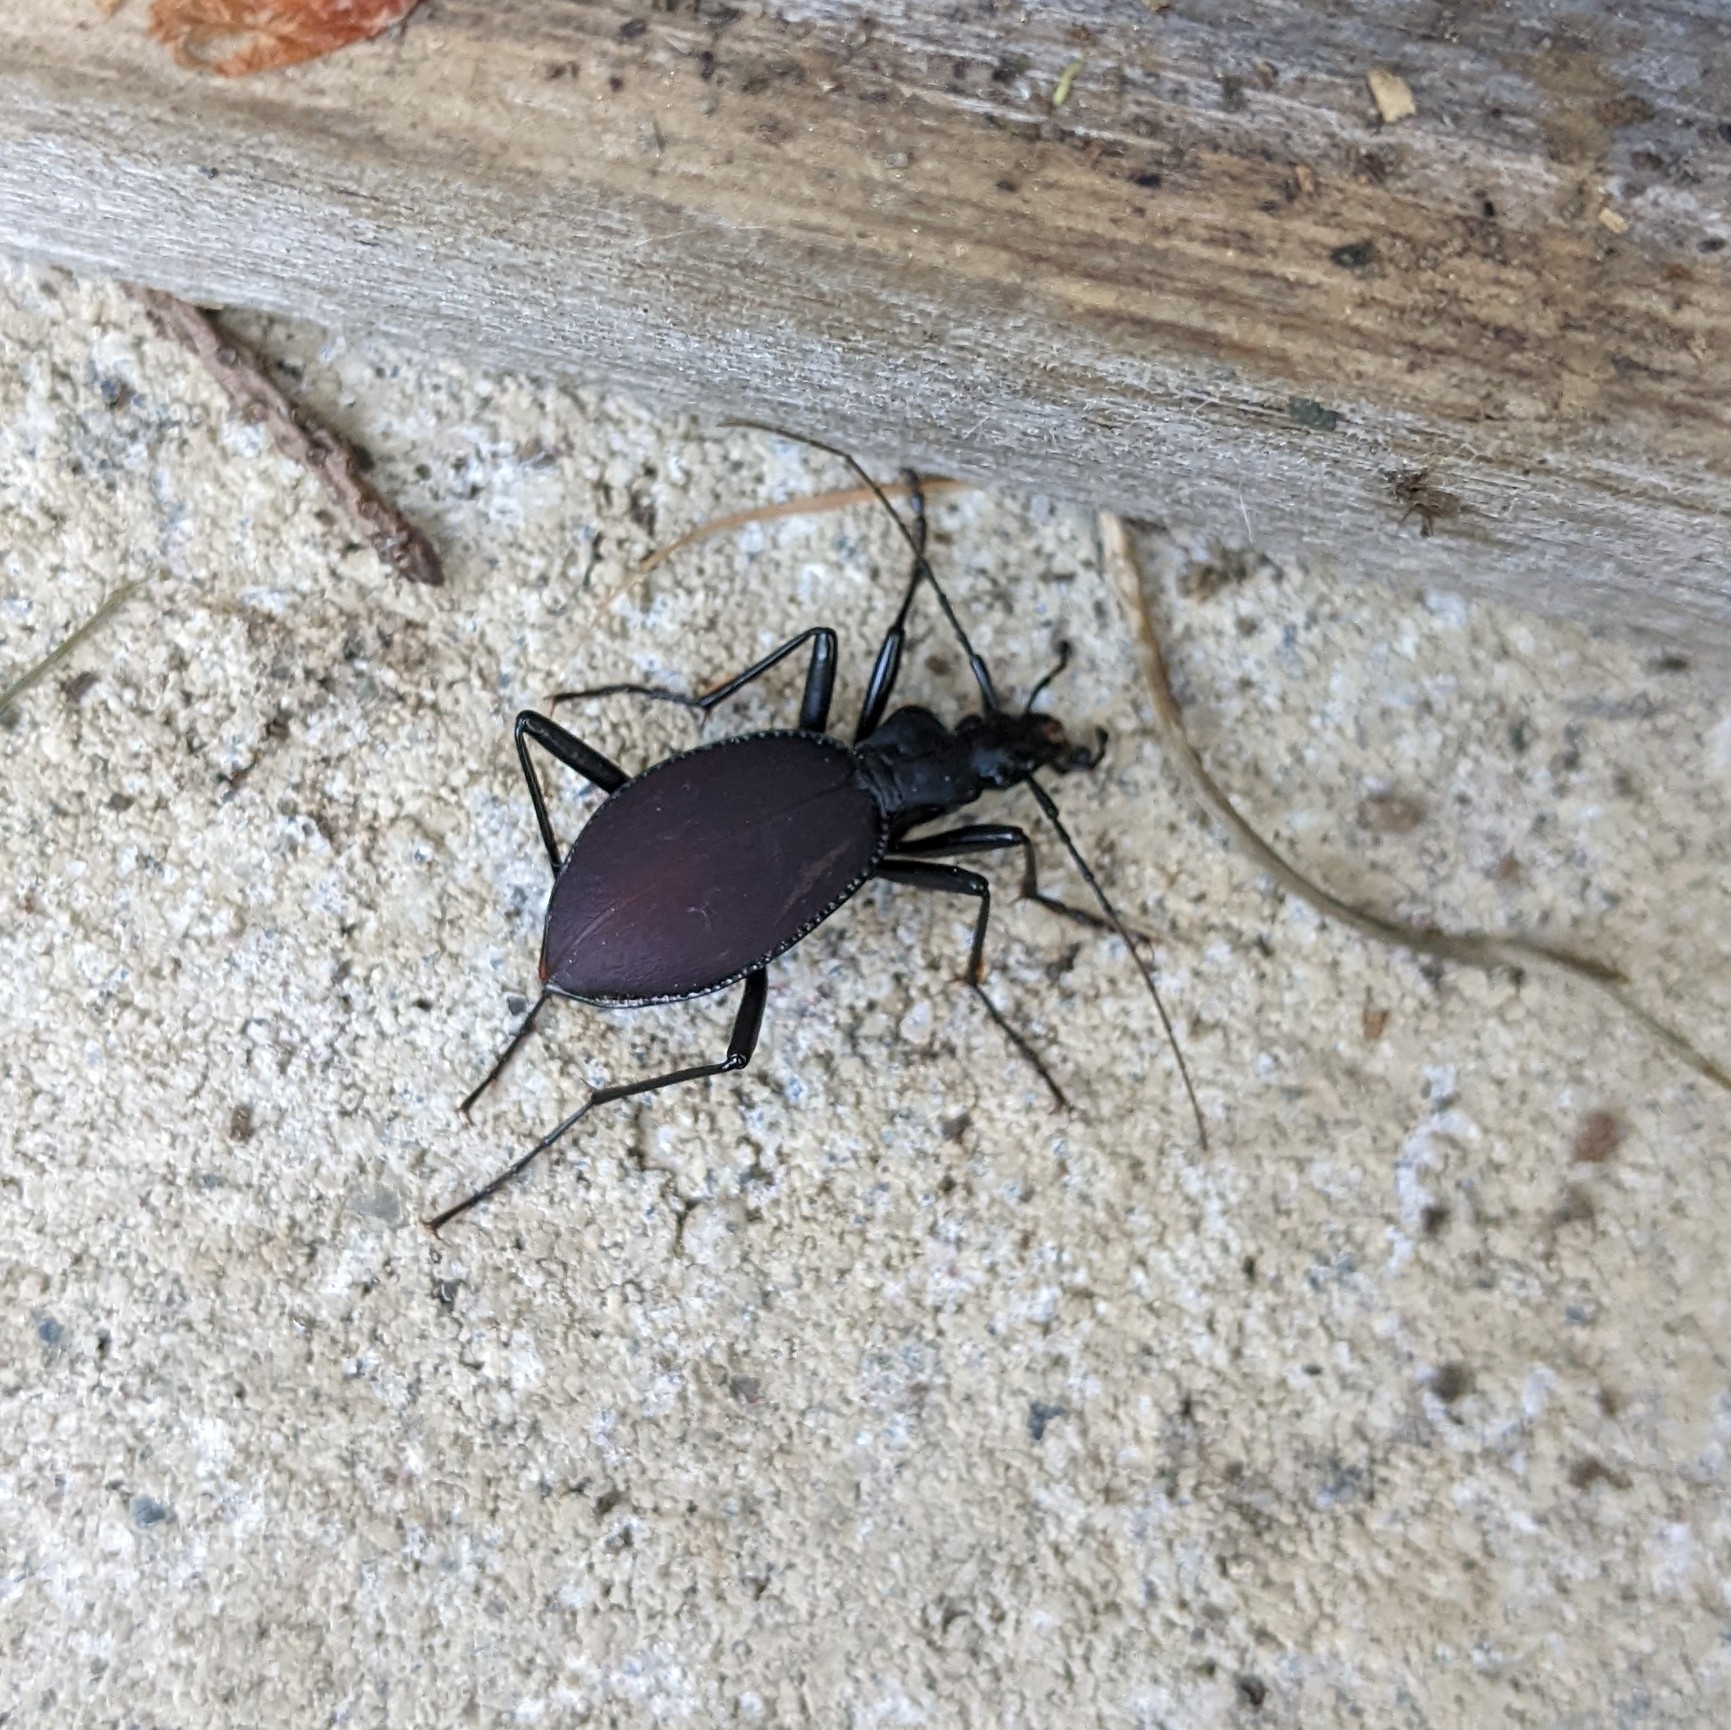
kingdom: Animalia
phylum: Arthropoda
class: Insecta
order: Coleoptera
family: Carabidae
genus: Scaphinotus
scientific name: Scaphinotus angusticollis
